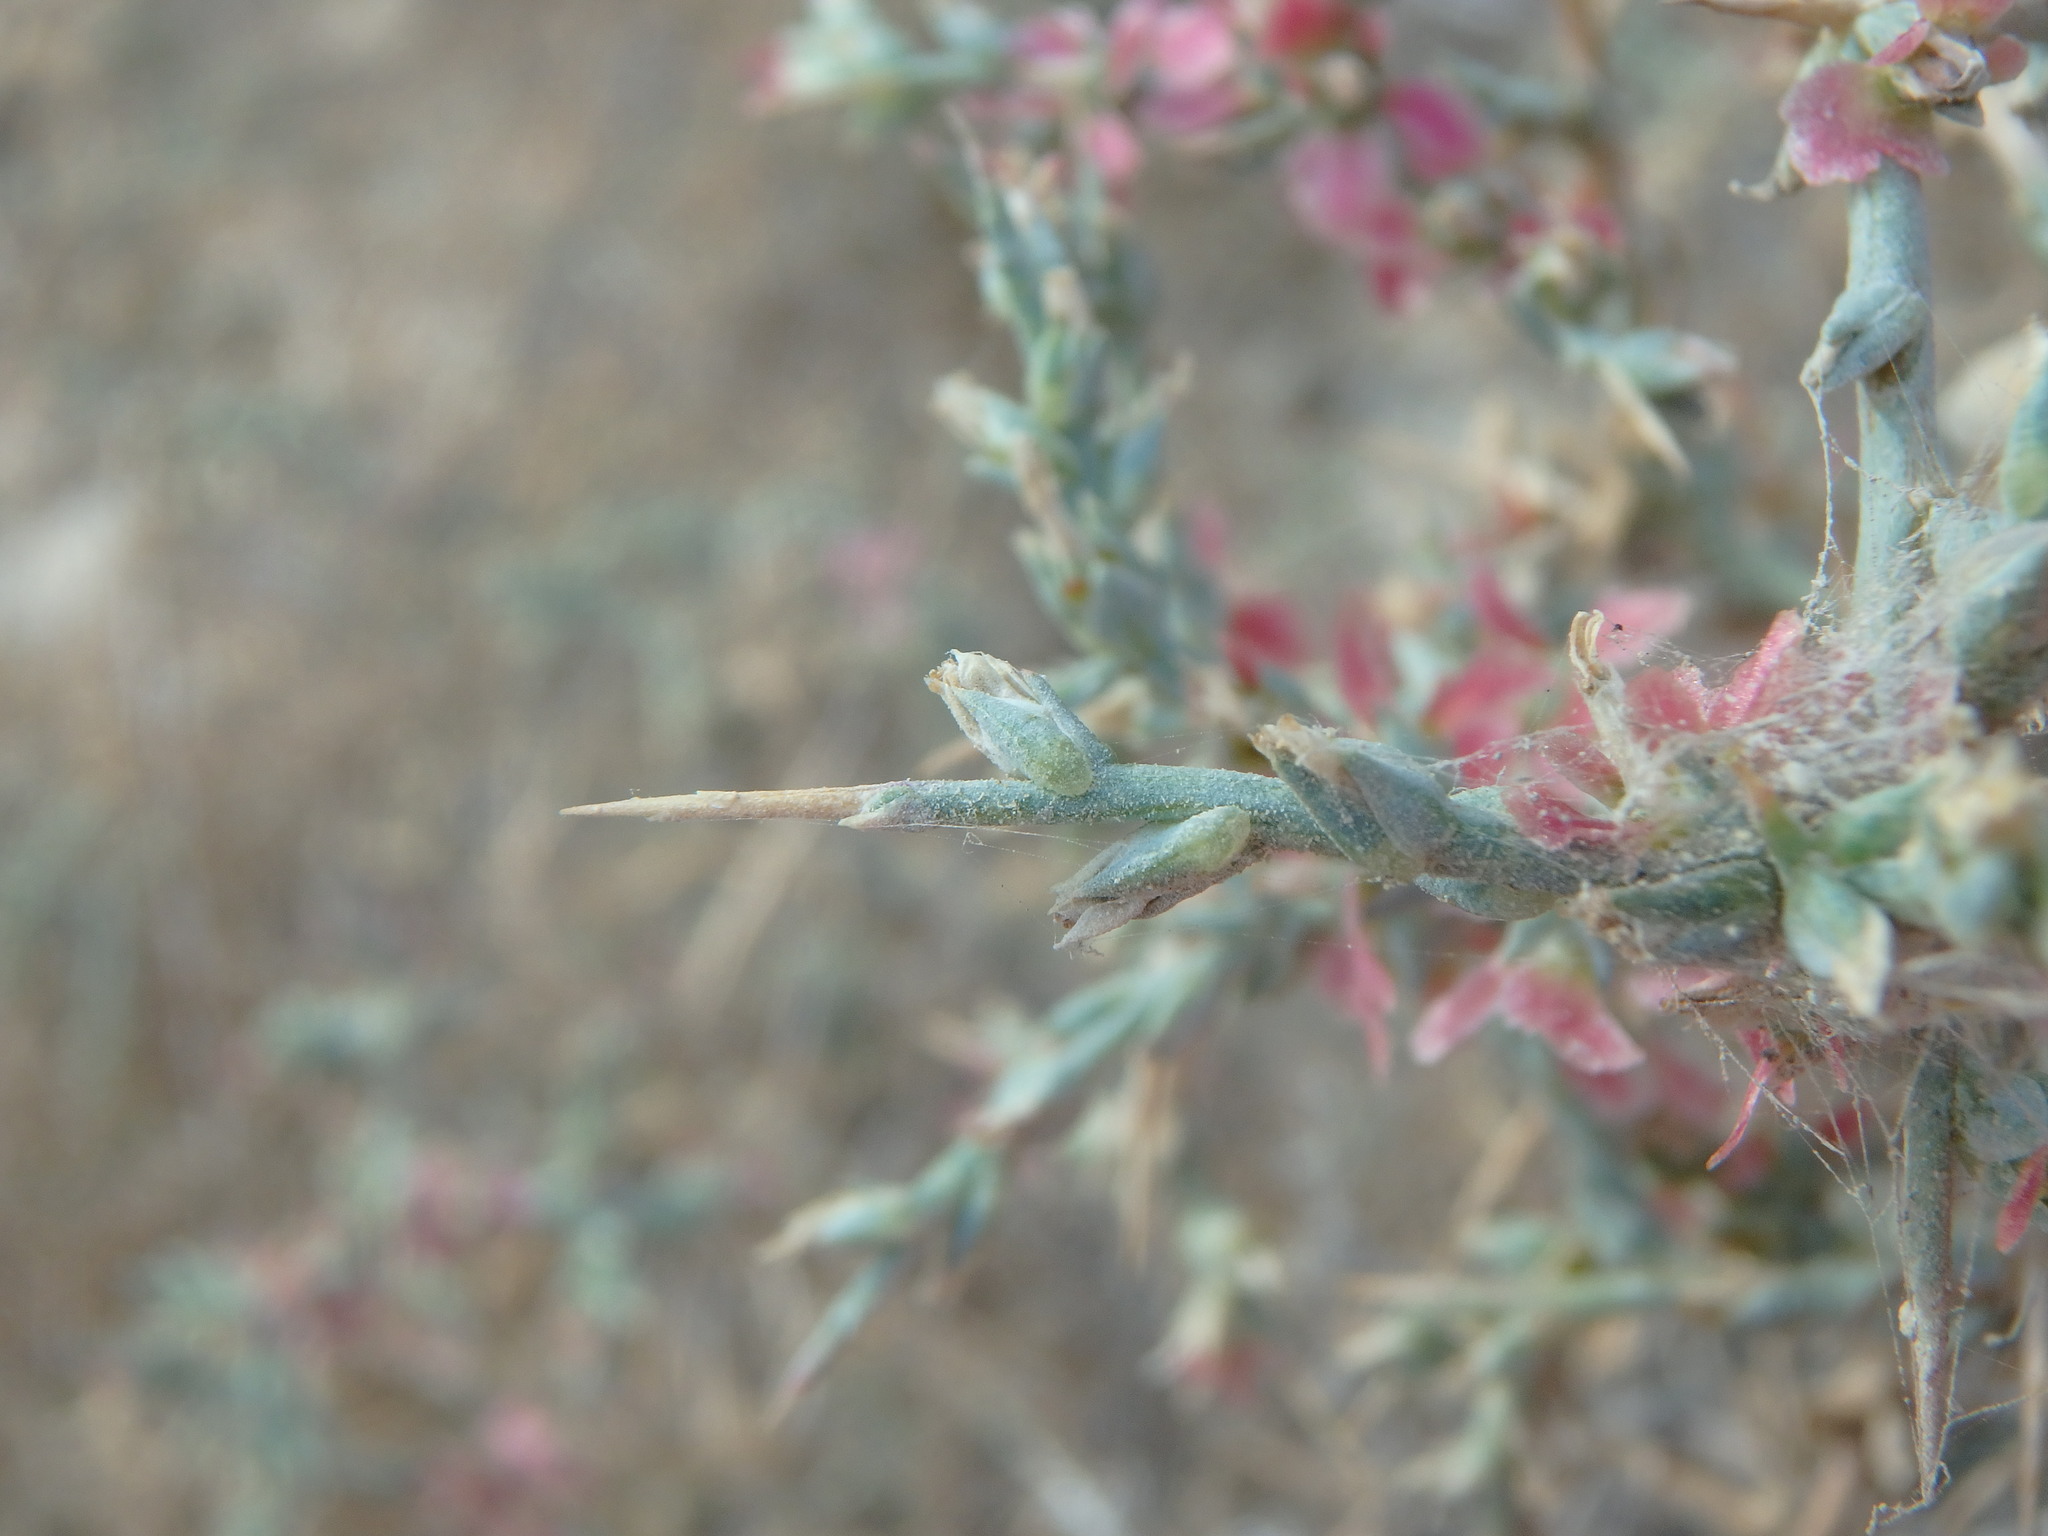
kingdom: Plantae
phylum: Tracheophyta
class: Magnoliopsida
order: Caryophyllales
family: Amaranthaceae
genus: Noaea
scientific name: Noaea mucronata
